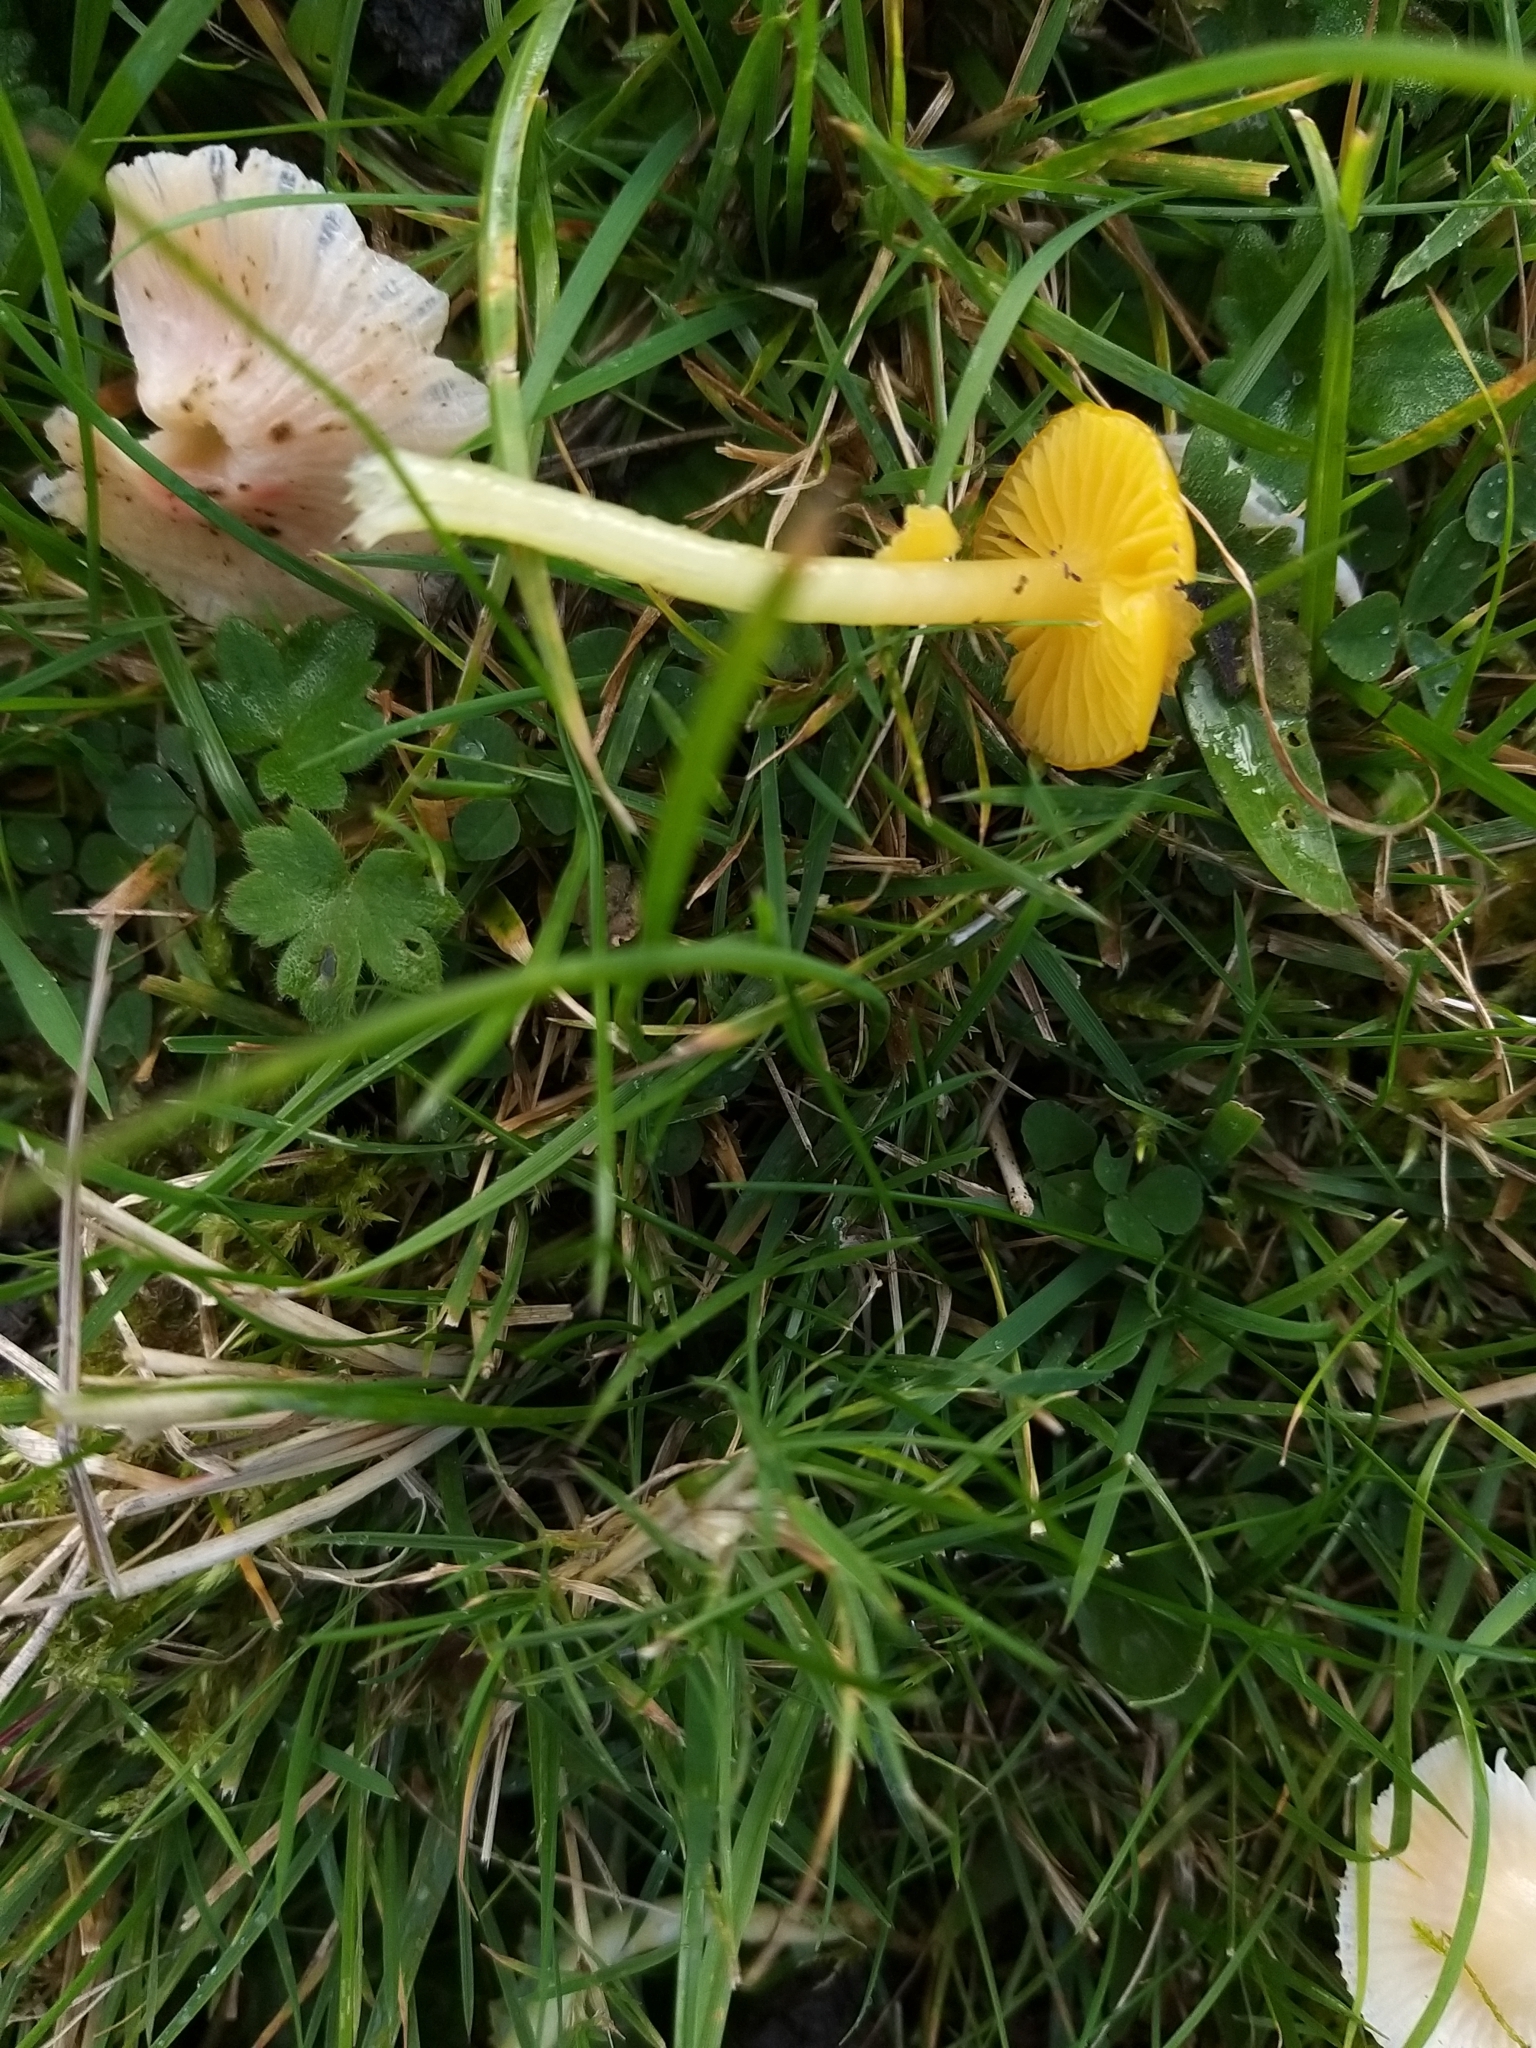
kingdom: Fungi
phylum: Basidiomycota
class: Agaricomycetes
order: Agaricales
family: Hygrophoraceae
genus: Gliophorus
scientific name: Gliophorus psittacinus
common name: Parrot wax-cap
